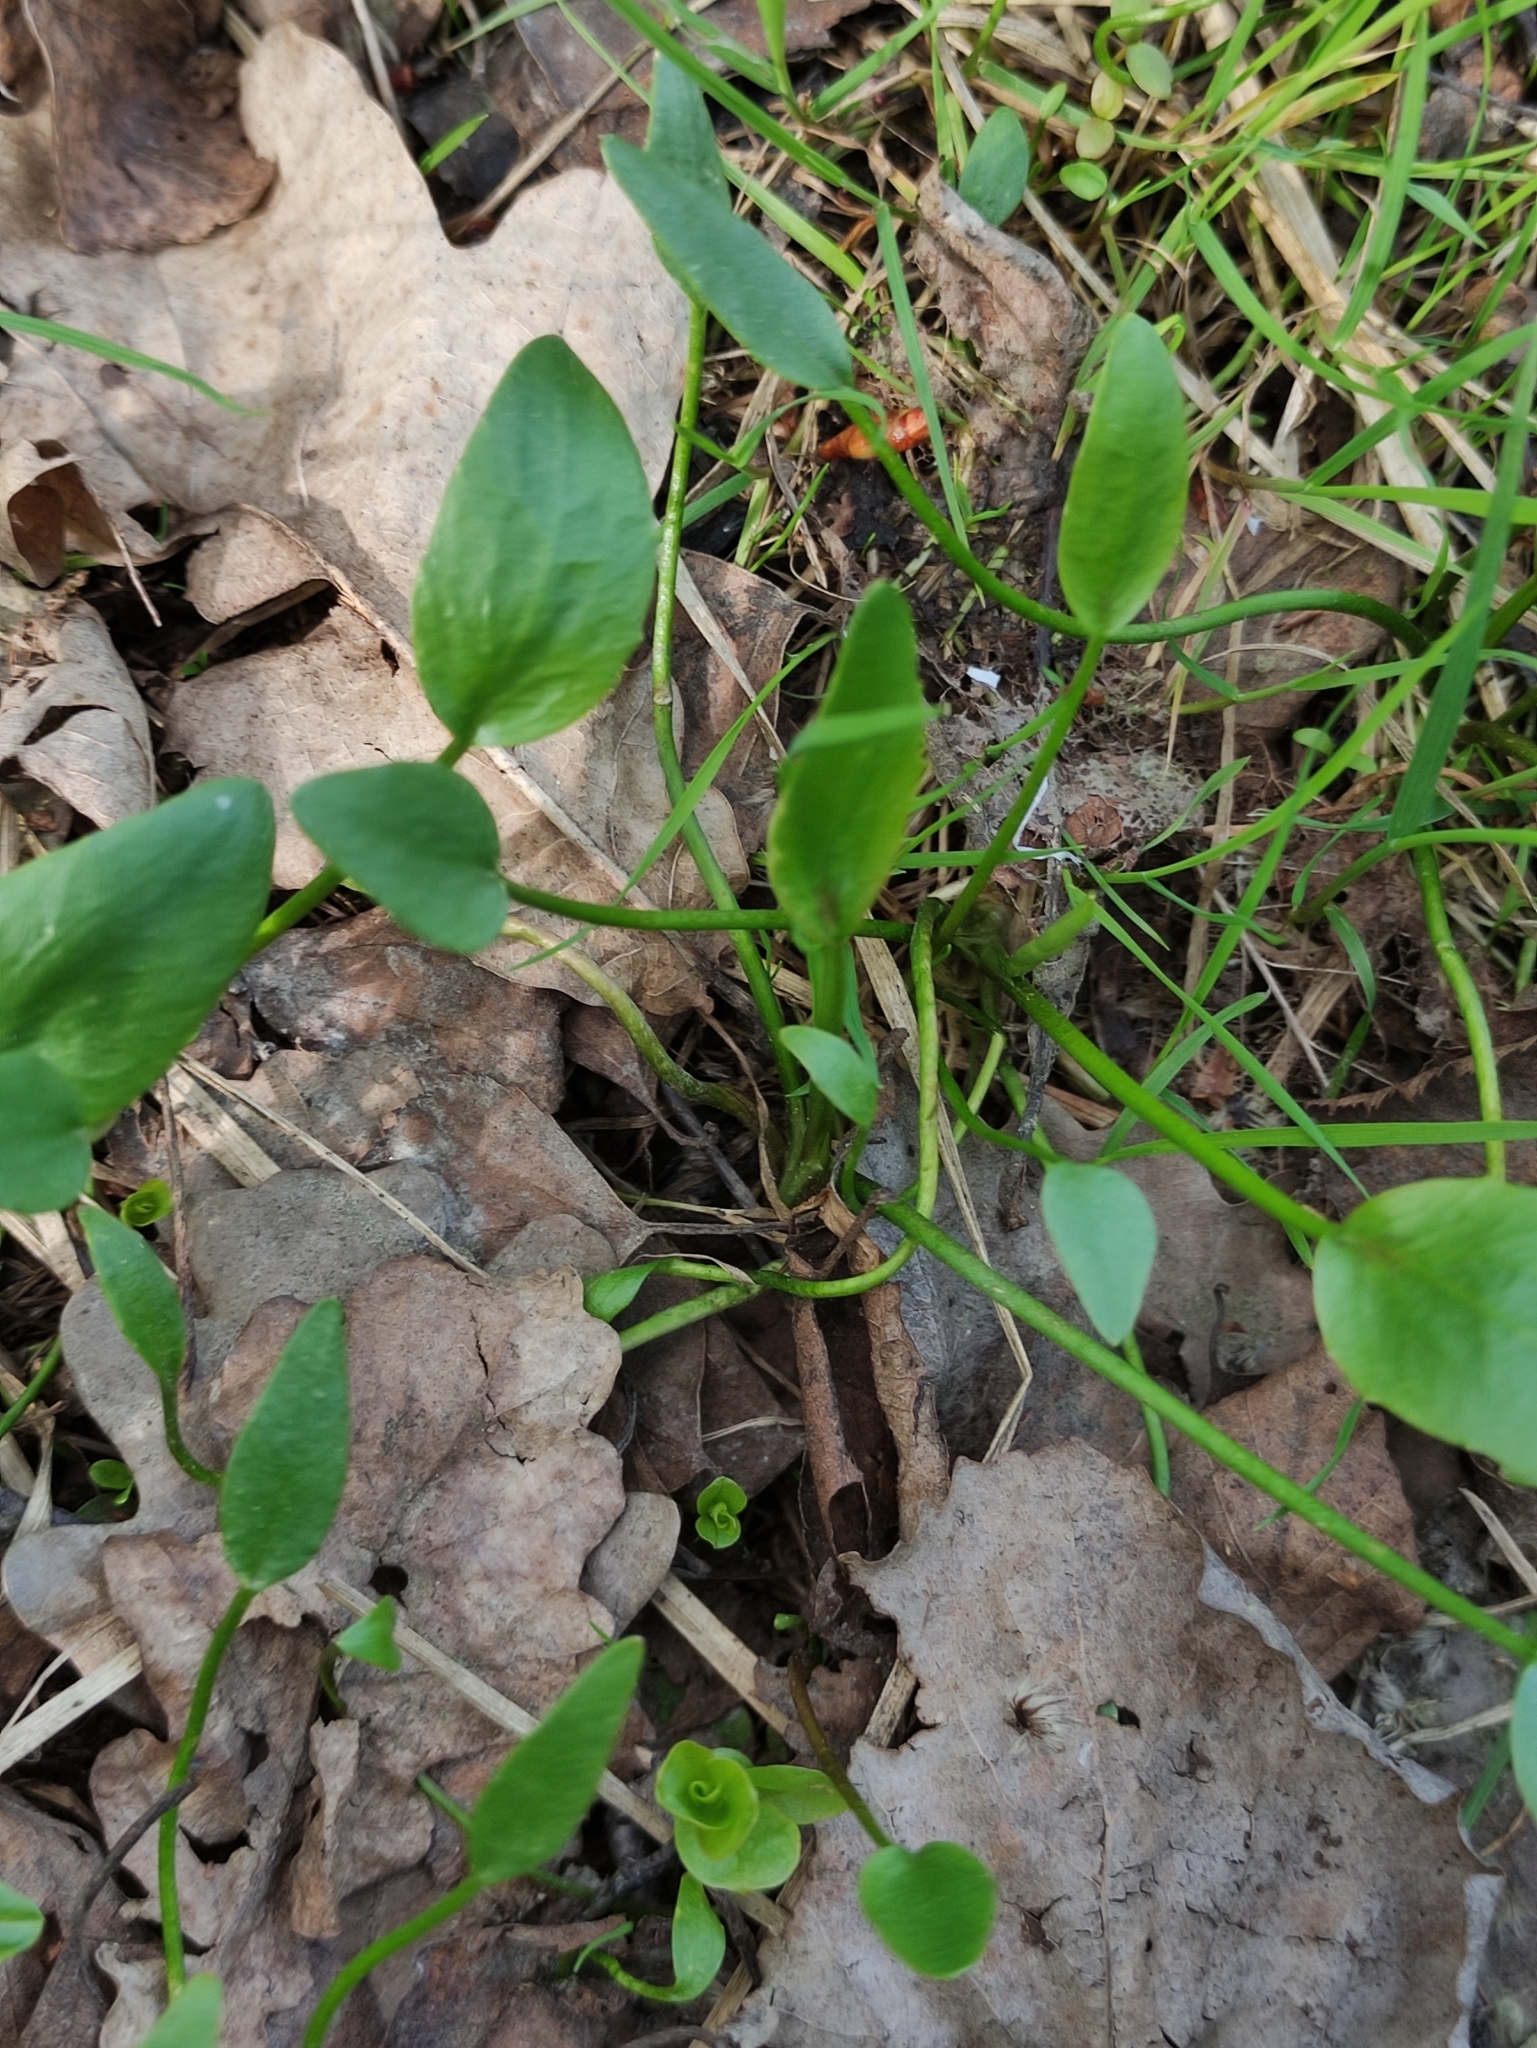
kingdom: Plantae
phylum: Tracheophyta
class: Magnoliopsida
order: Ranunculales
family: Ranunculaceae
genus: Ranunculus
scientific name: Ranunculus flammula
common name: Lesser spearwort
